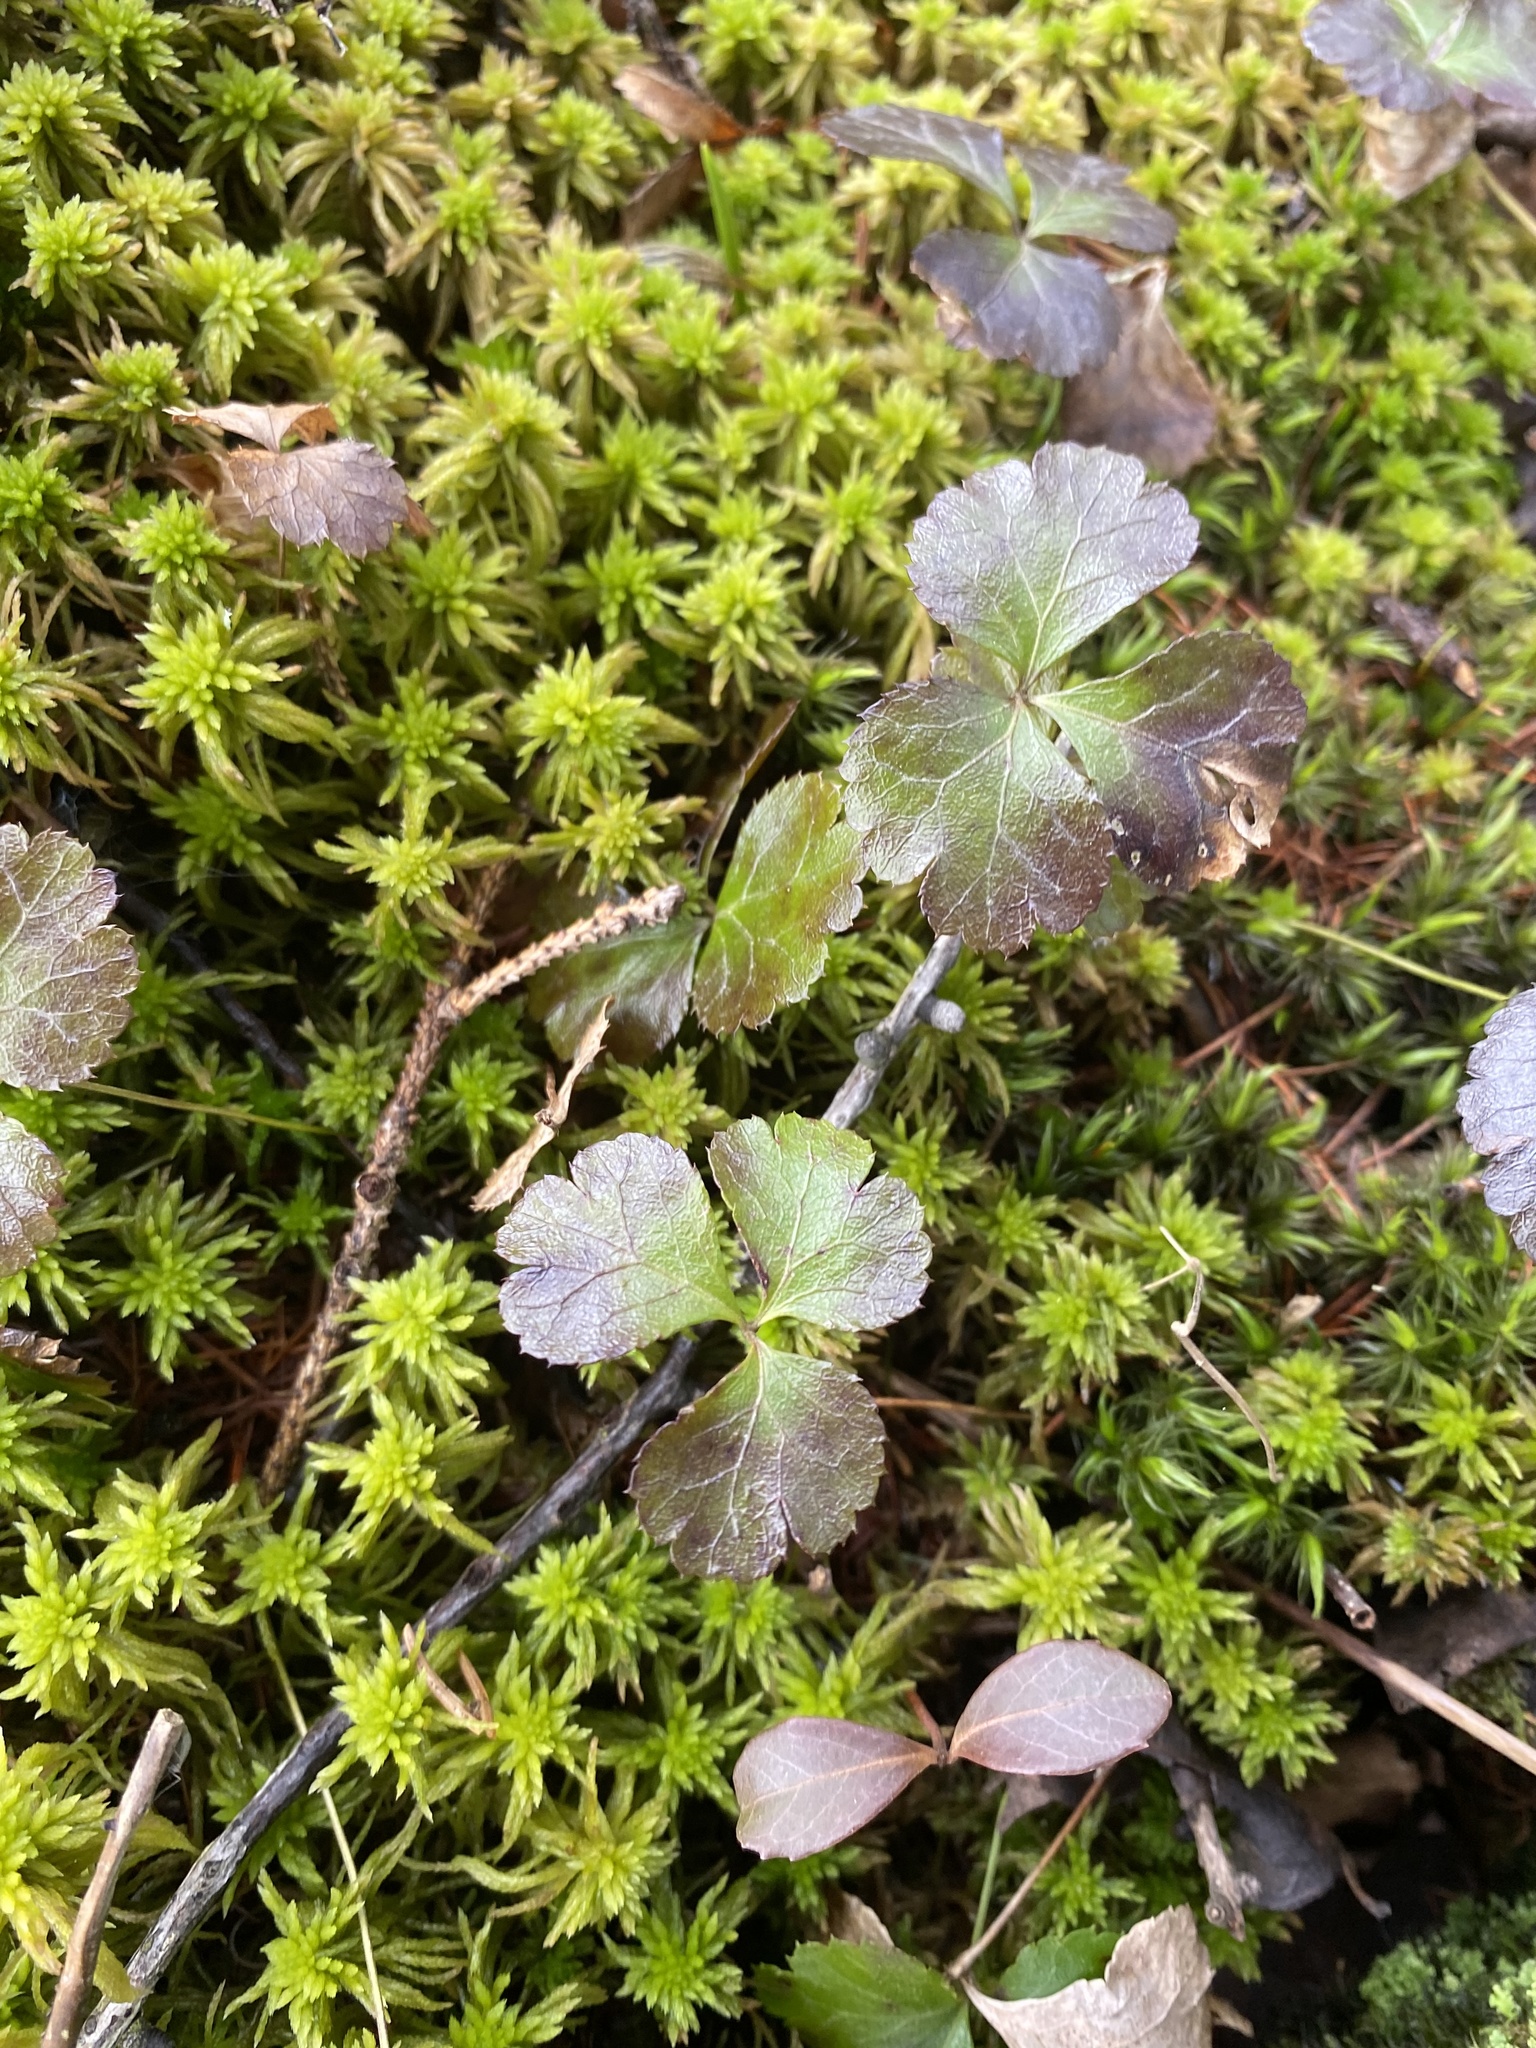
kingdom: Plantae
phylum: Tracheophyta
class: Magnoliopsida
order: Ranunculales
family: Ranunculaceae
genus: Coptis
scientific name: Coptis trifolia
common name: Canker-root
